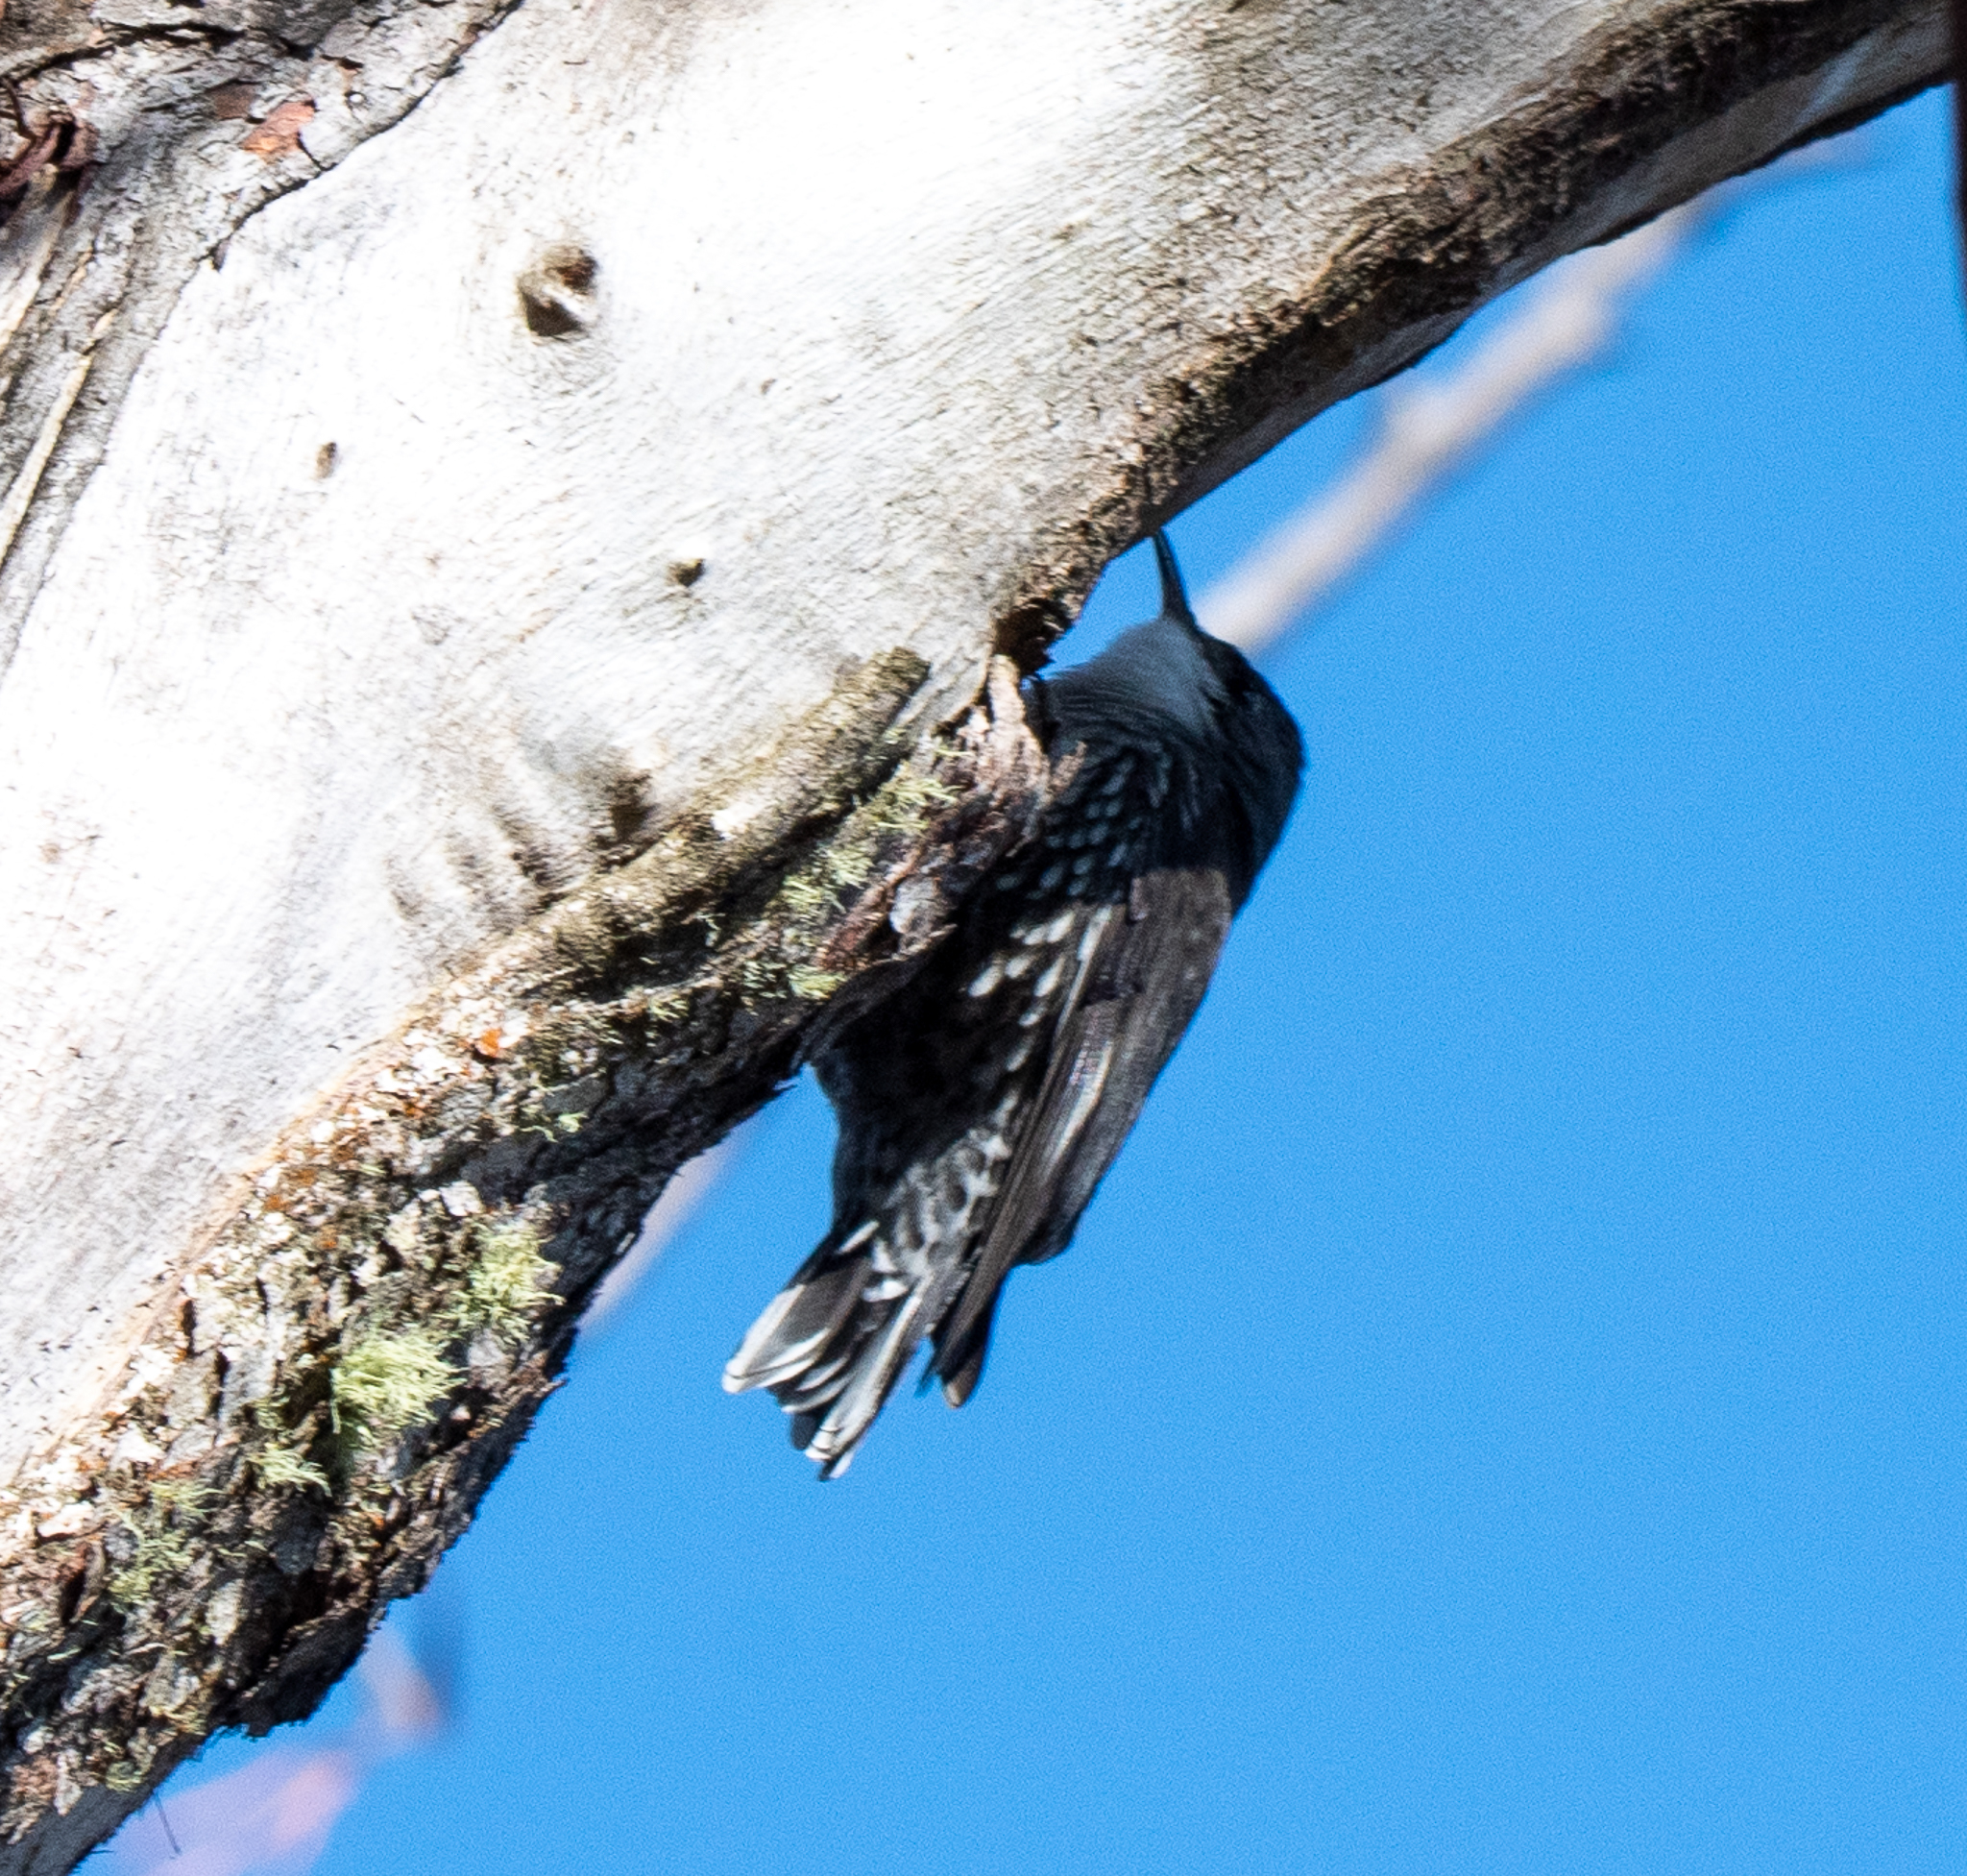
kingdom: Animalia
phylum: Chordata
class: Aves
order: Passeriformes
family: Climacteridae
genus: Cormobates
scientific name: Cormobates leucophaea
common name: White-throated treecreeper
